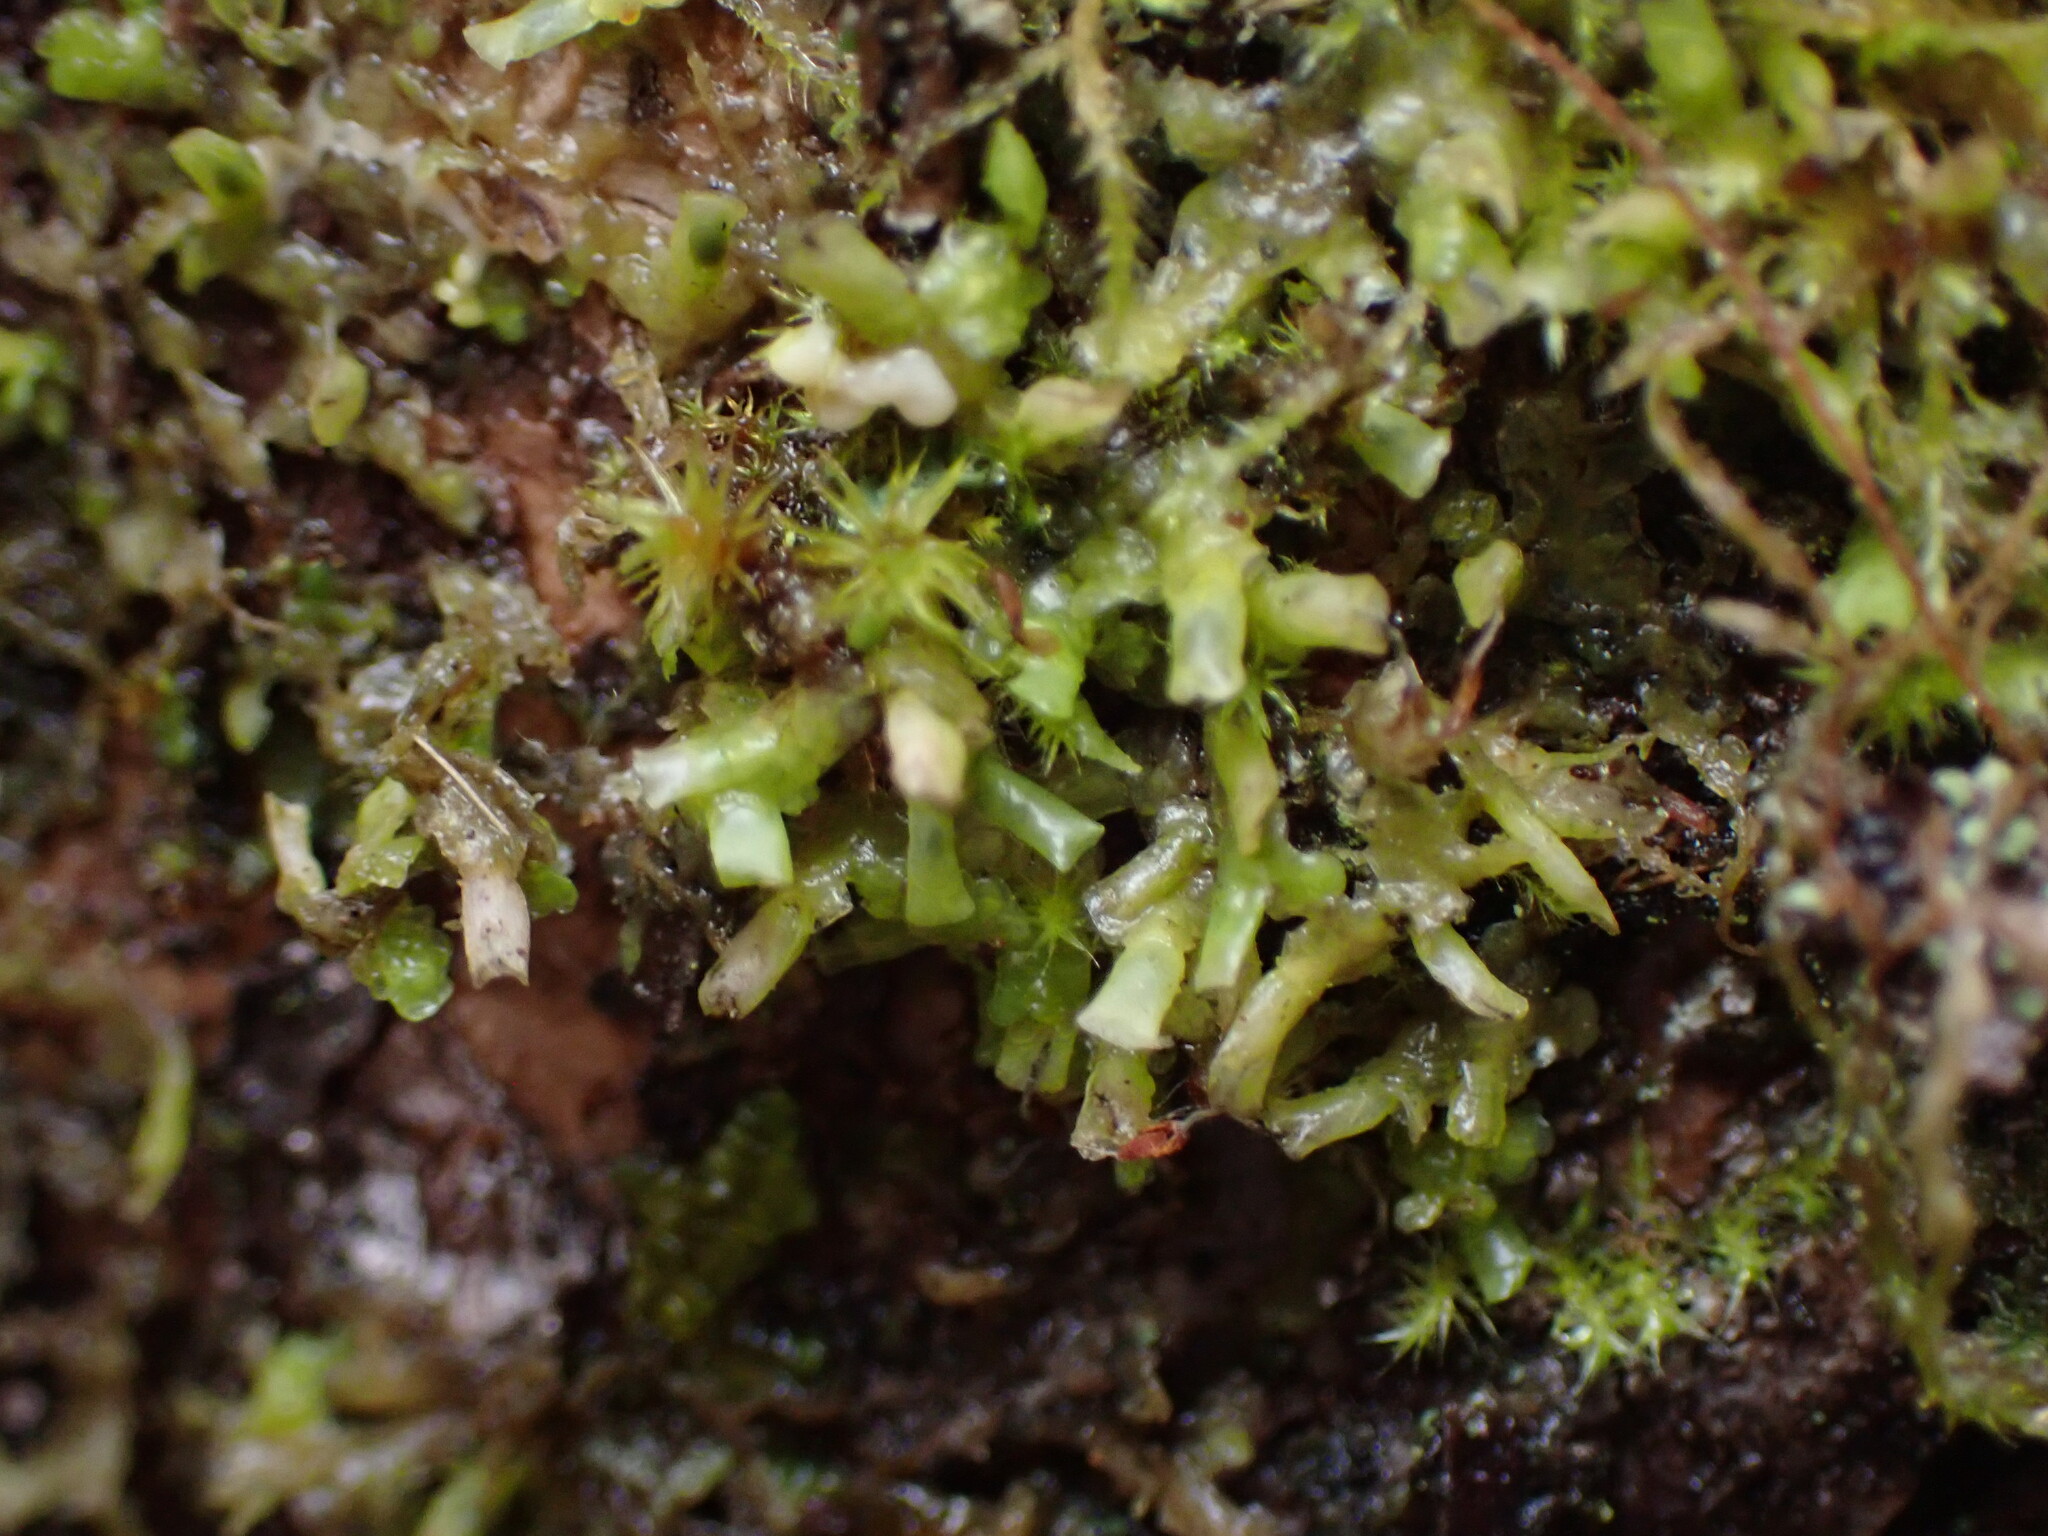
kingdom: Plantae
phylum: Marchantiophyta
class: Jungermanniopsida
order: Porellales
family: Radulaceae
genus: Radula
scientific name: Radula complanata
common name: Flat-leaved scalewort
